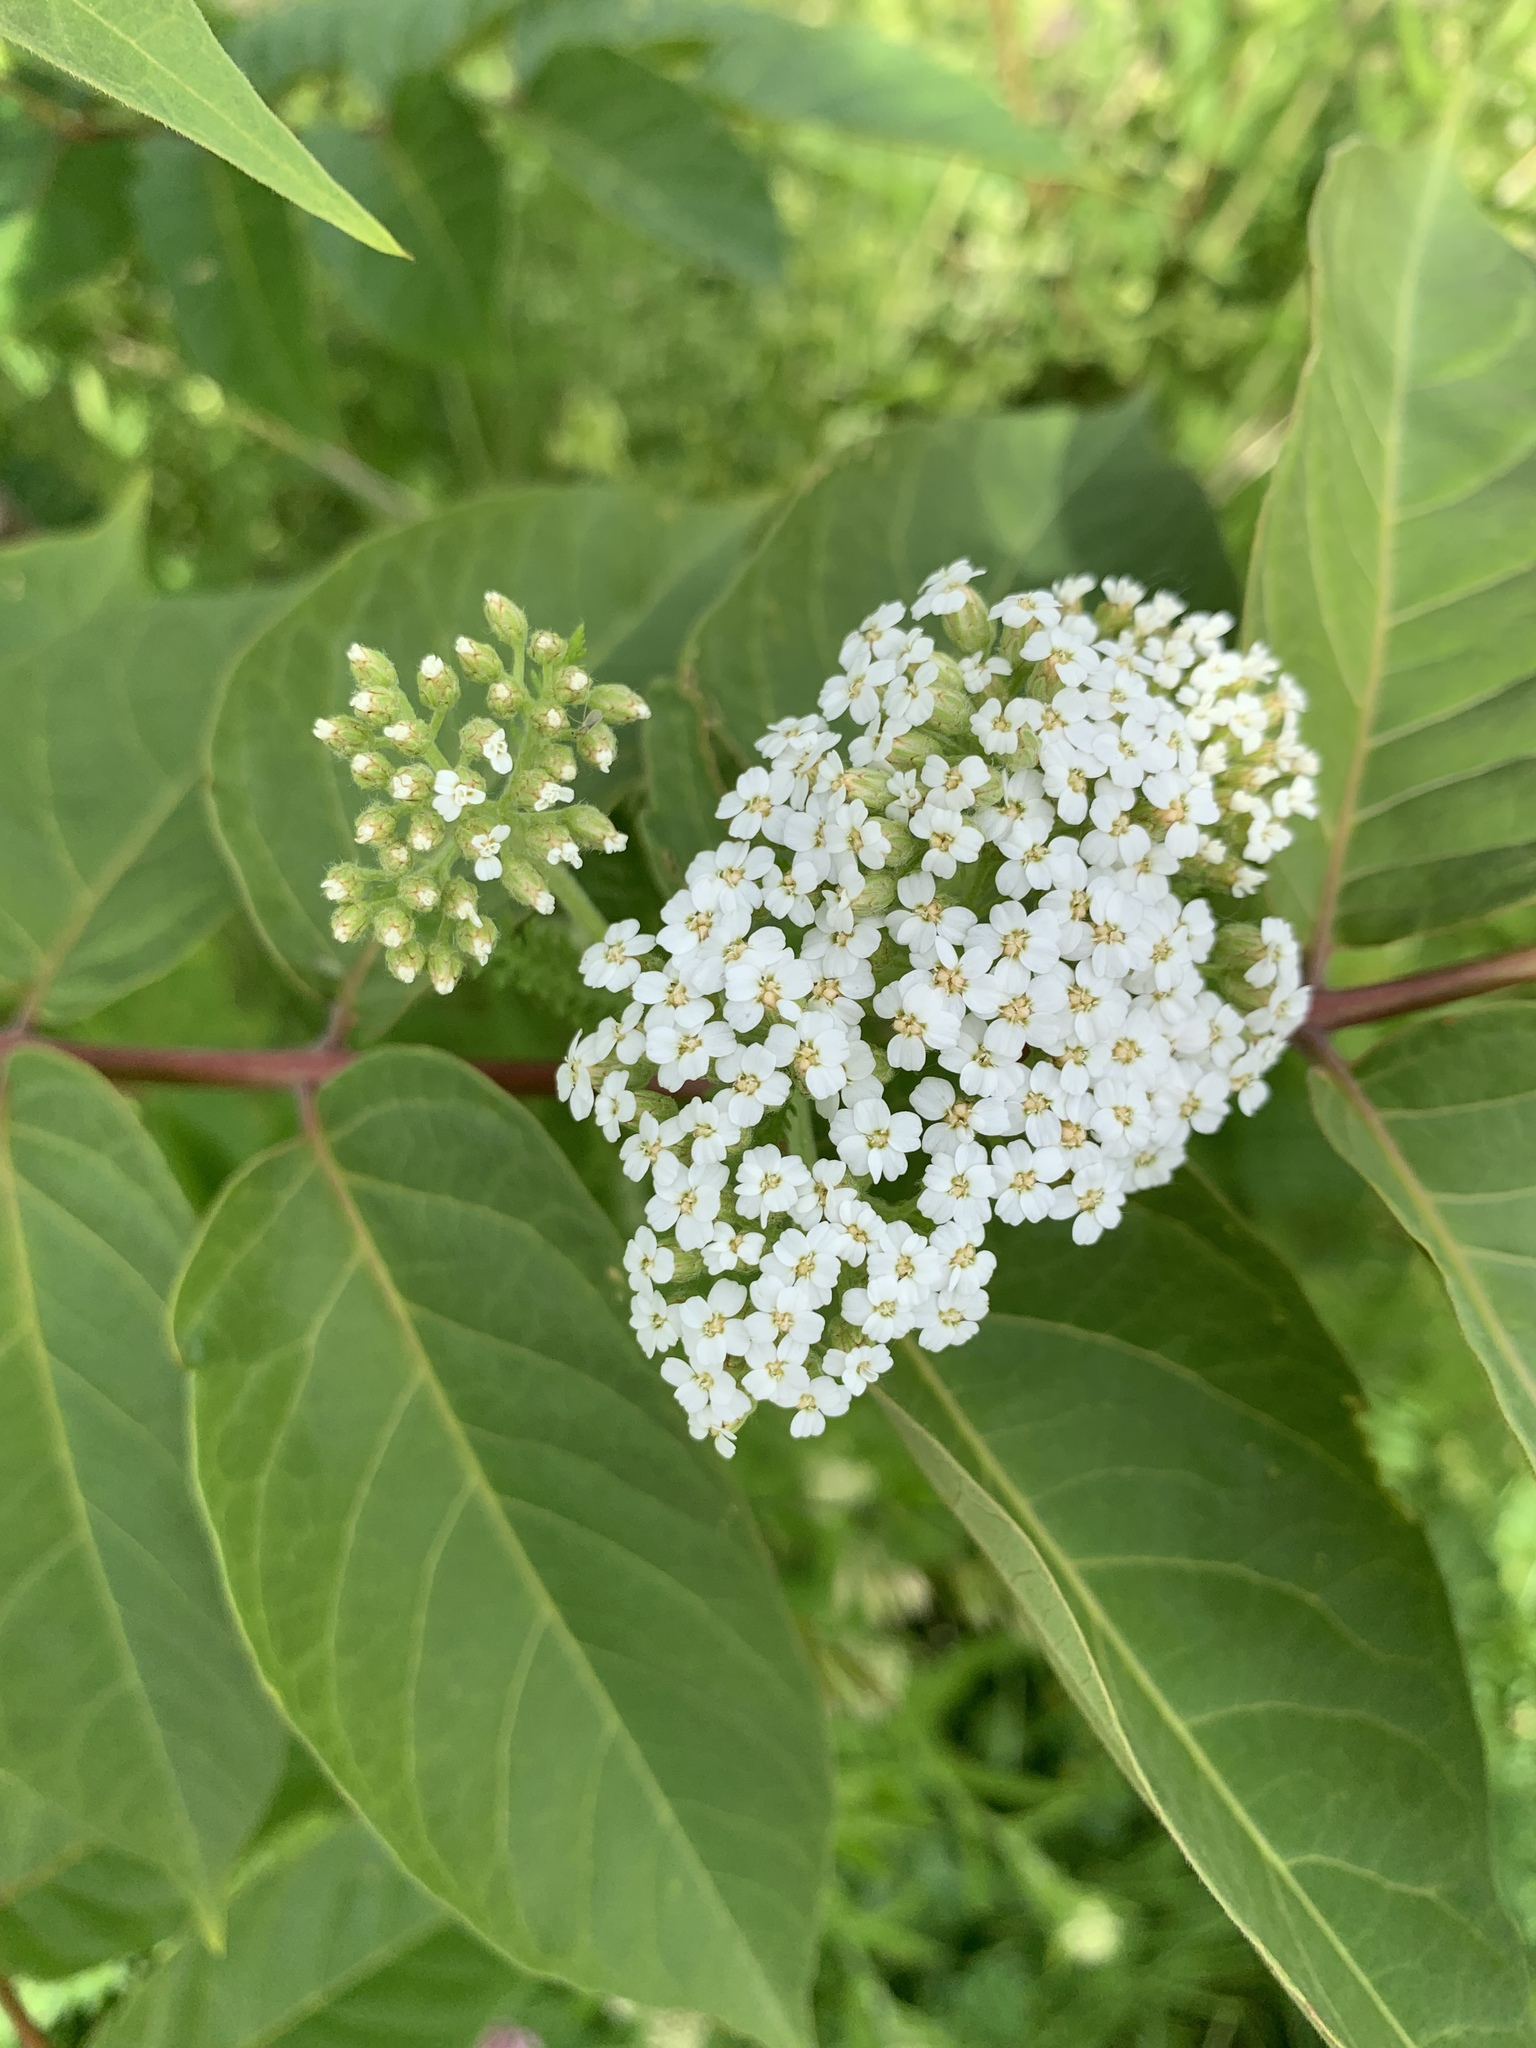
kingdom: Plantae
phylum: Tracheophyta
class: Magnoliopsida
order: Asterales
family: Asteraceae
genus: Achillea
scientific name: Achillea millefolium
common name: Yarrow
